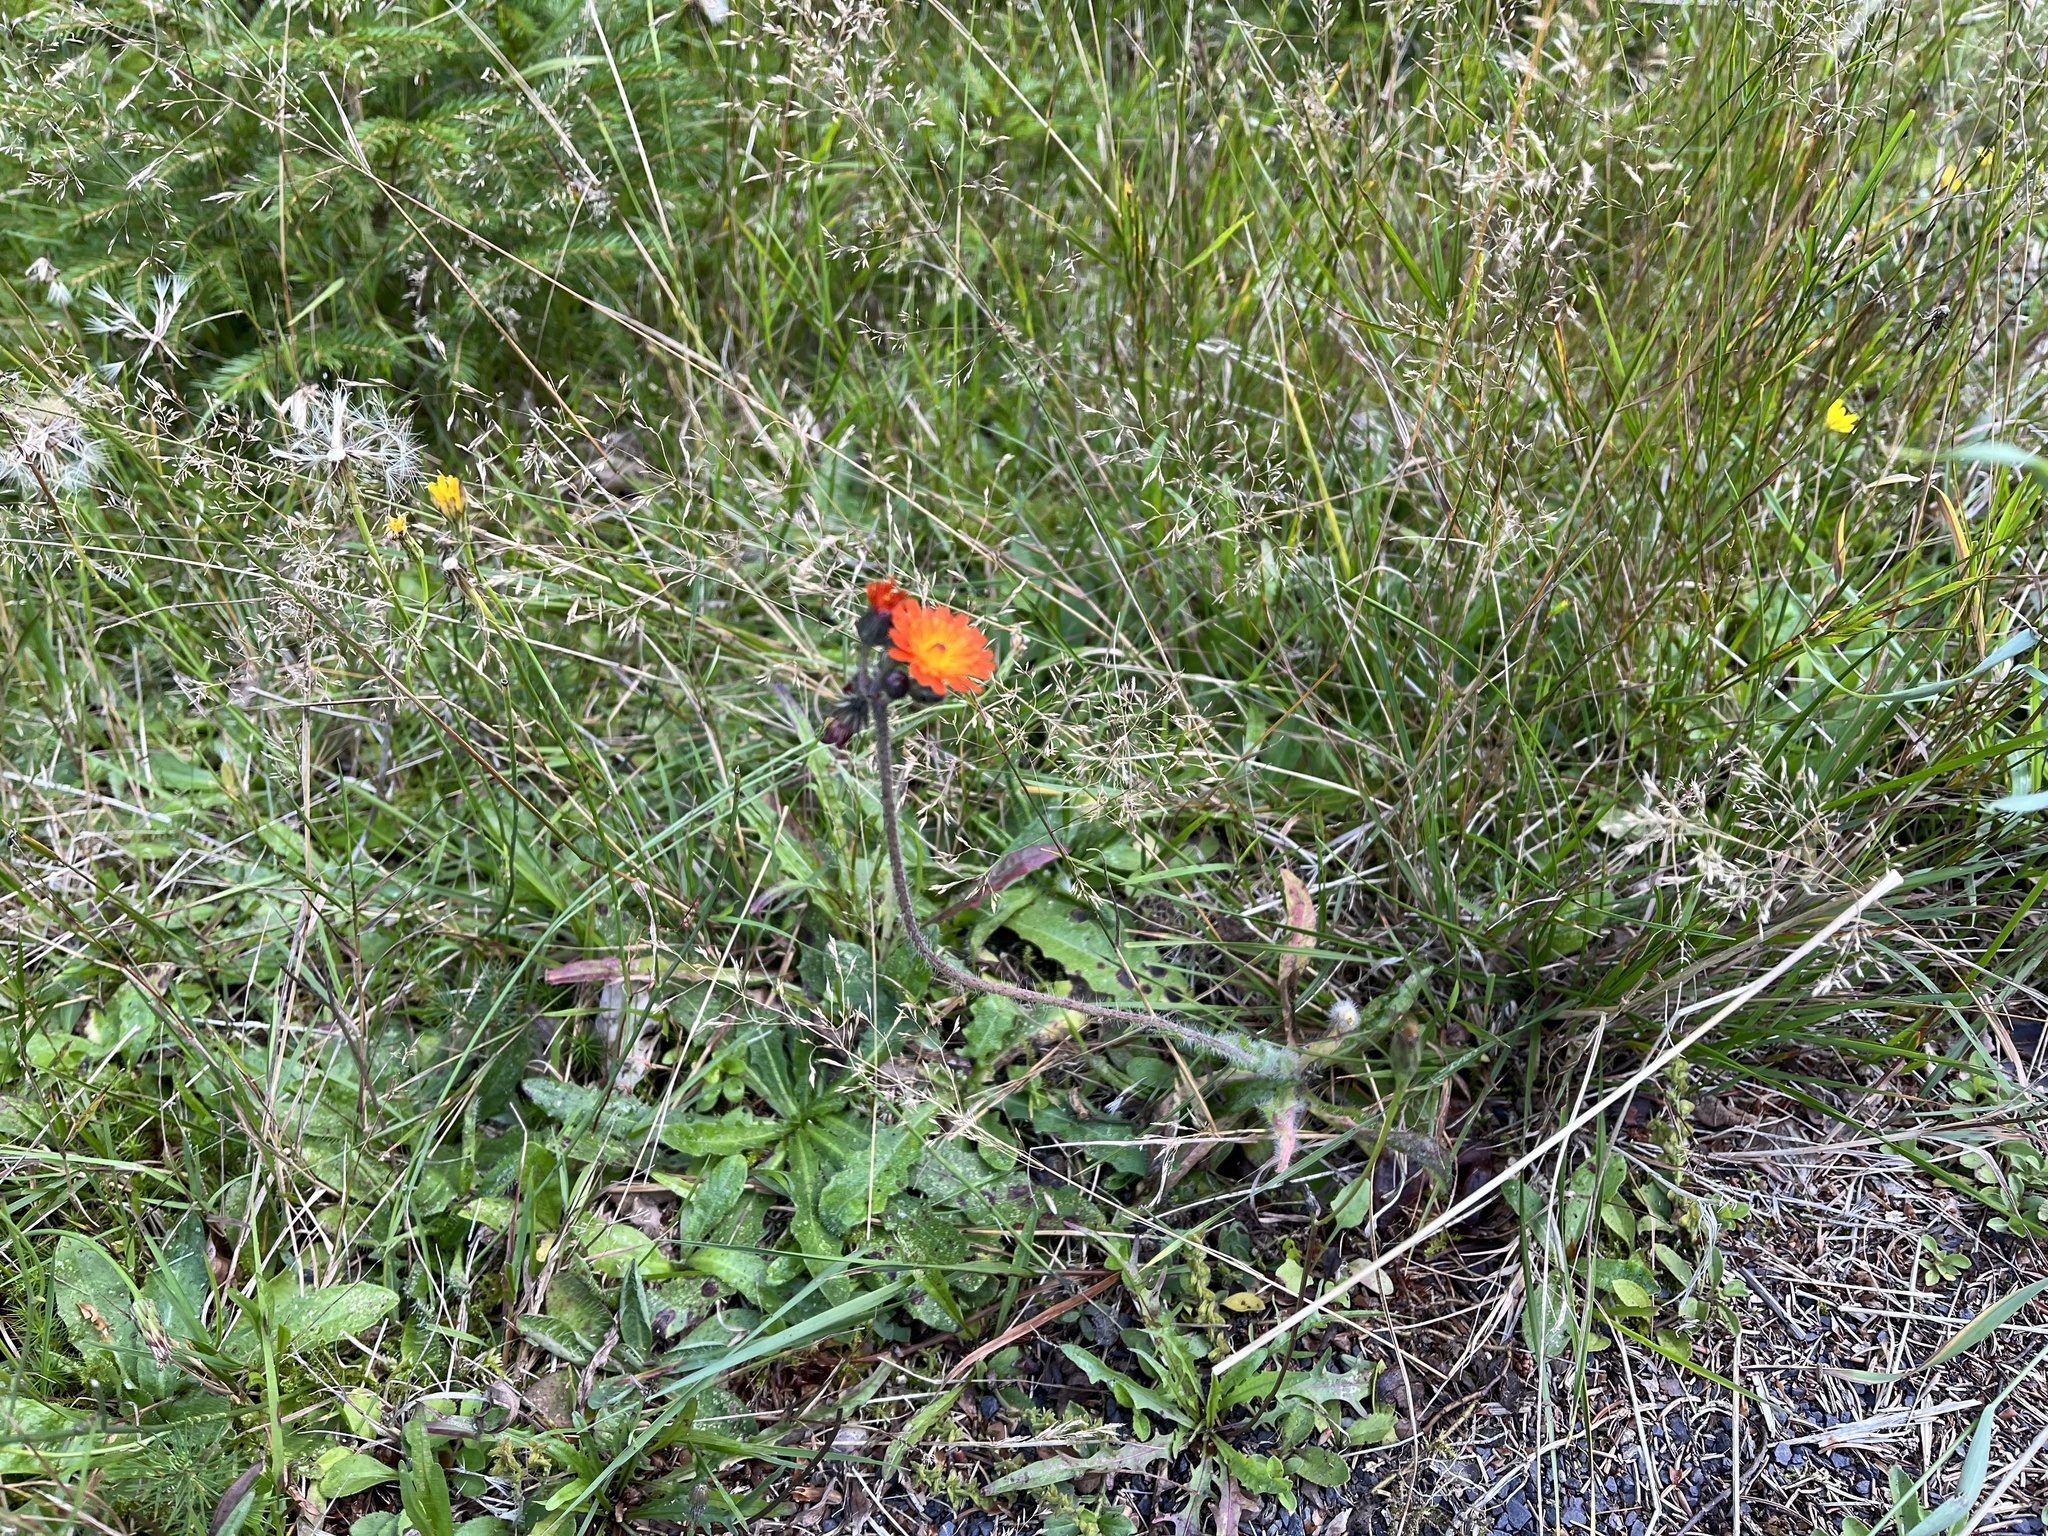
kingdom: Plantae
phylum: Tracheophyta
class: Magnoliopsida
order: Asterales
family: Asteraceae
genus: Pilosella
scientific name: Pilosella aurantiaca
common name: Fox-and-cubs
